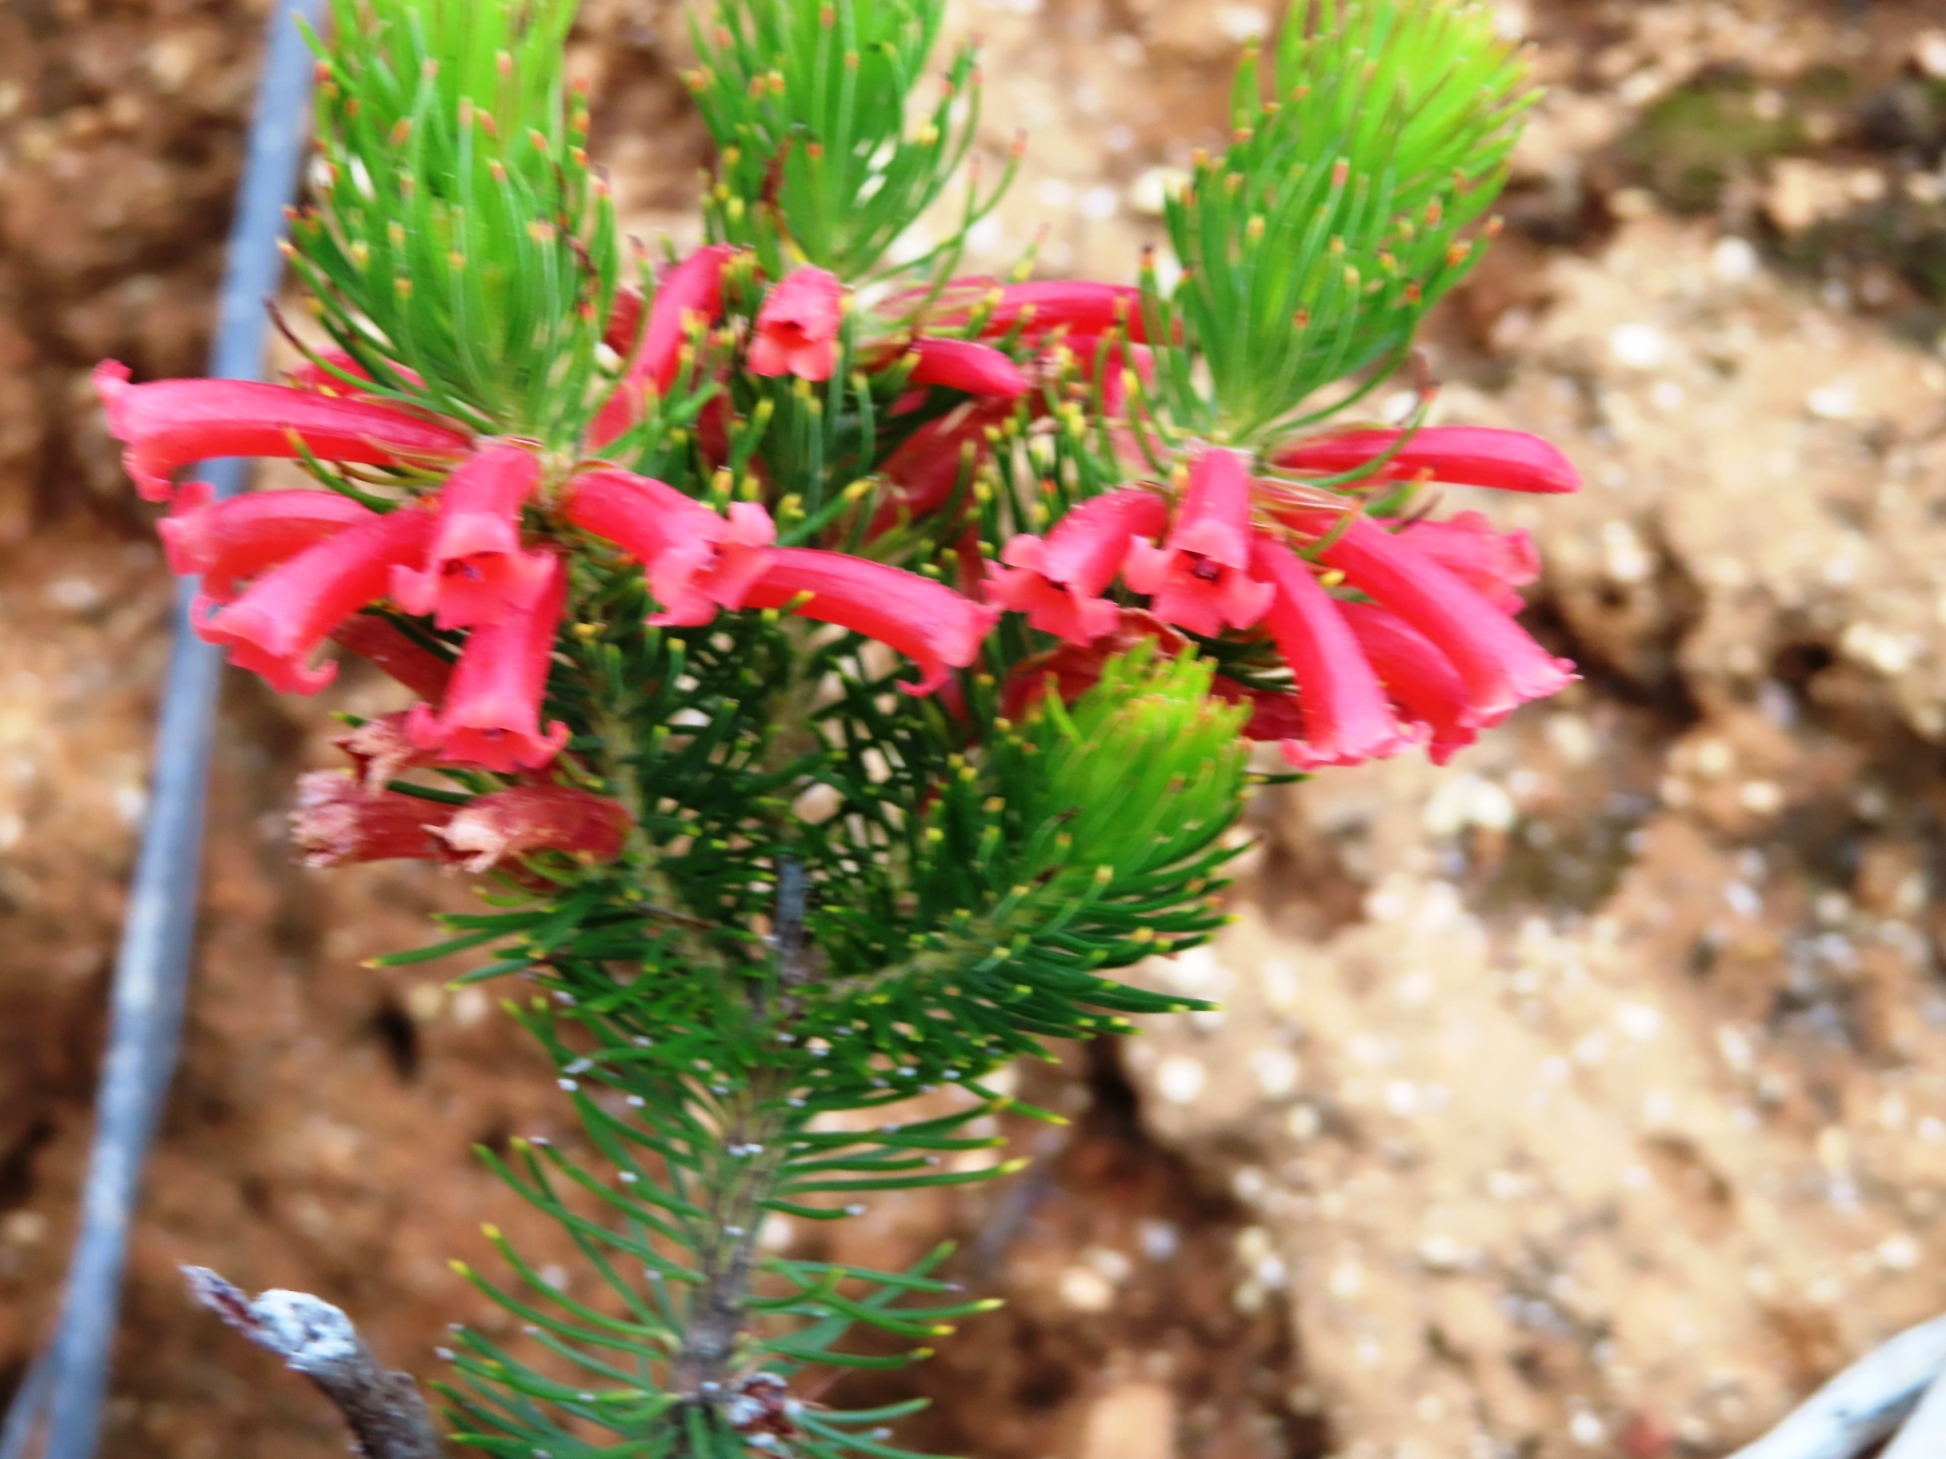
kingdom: Plantae
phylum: Tracheophyta
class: Magnoliopsida
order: Ericales
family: Ericaceae
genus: Erica
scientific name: Erica viscaria
